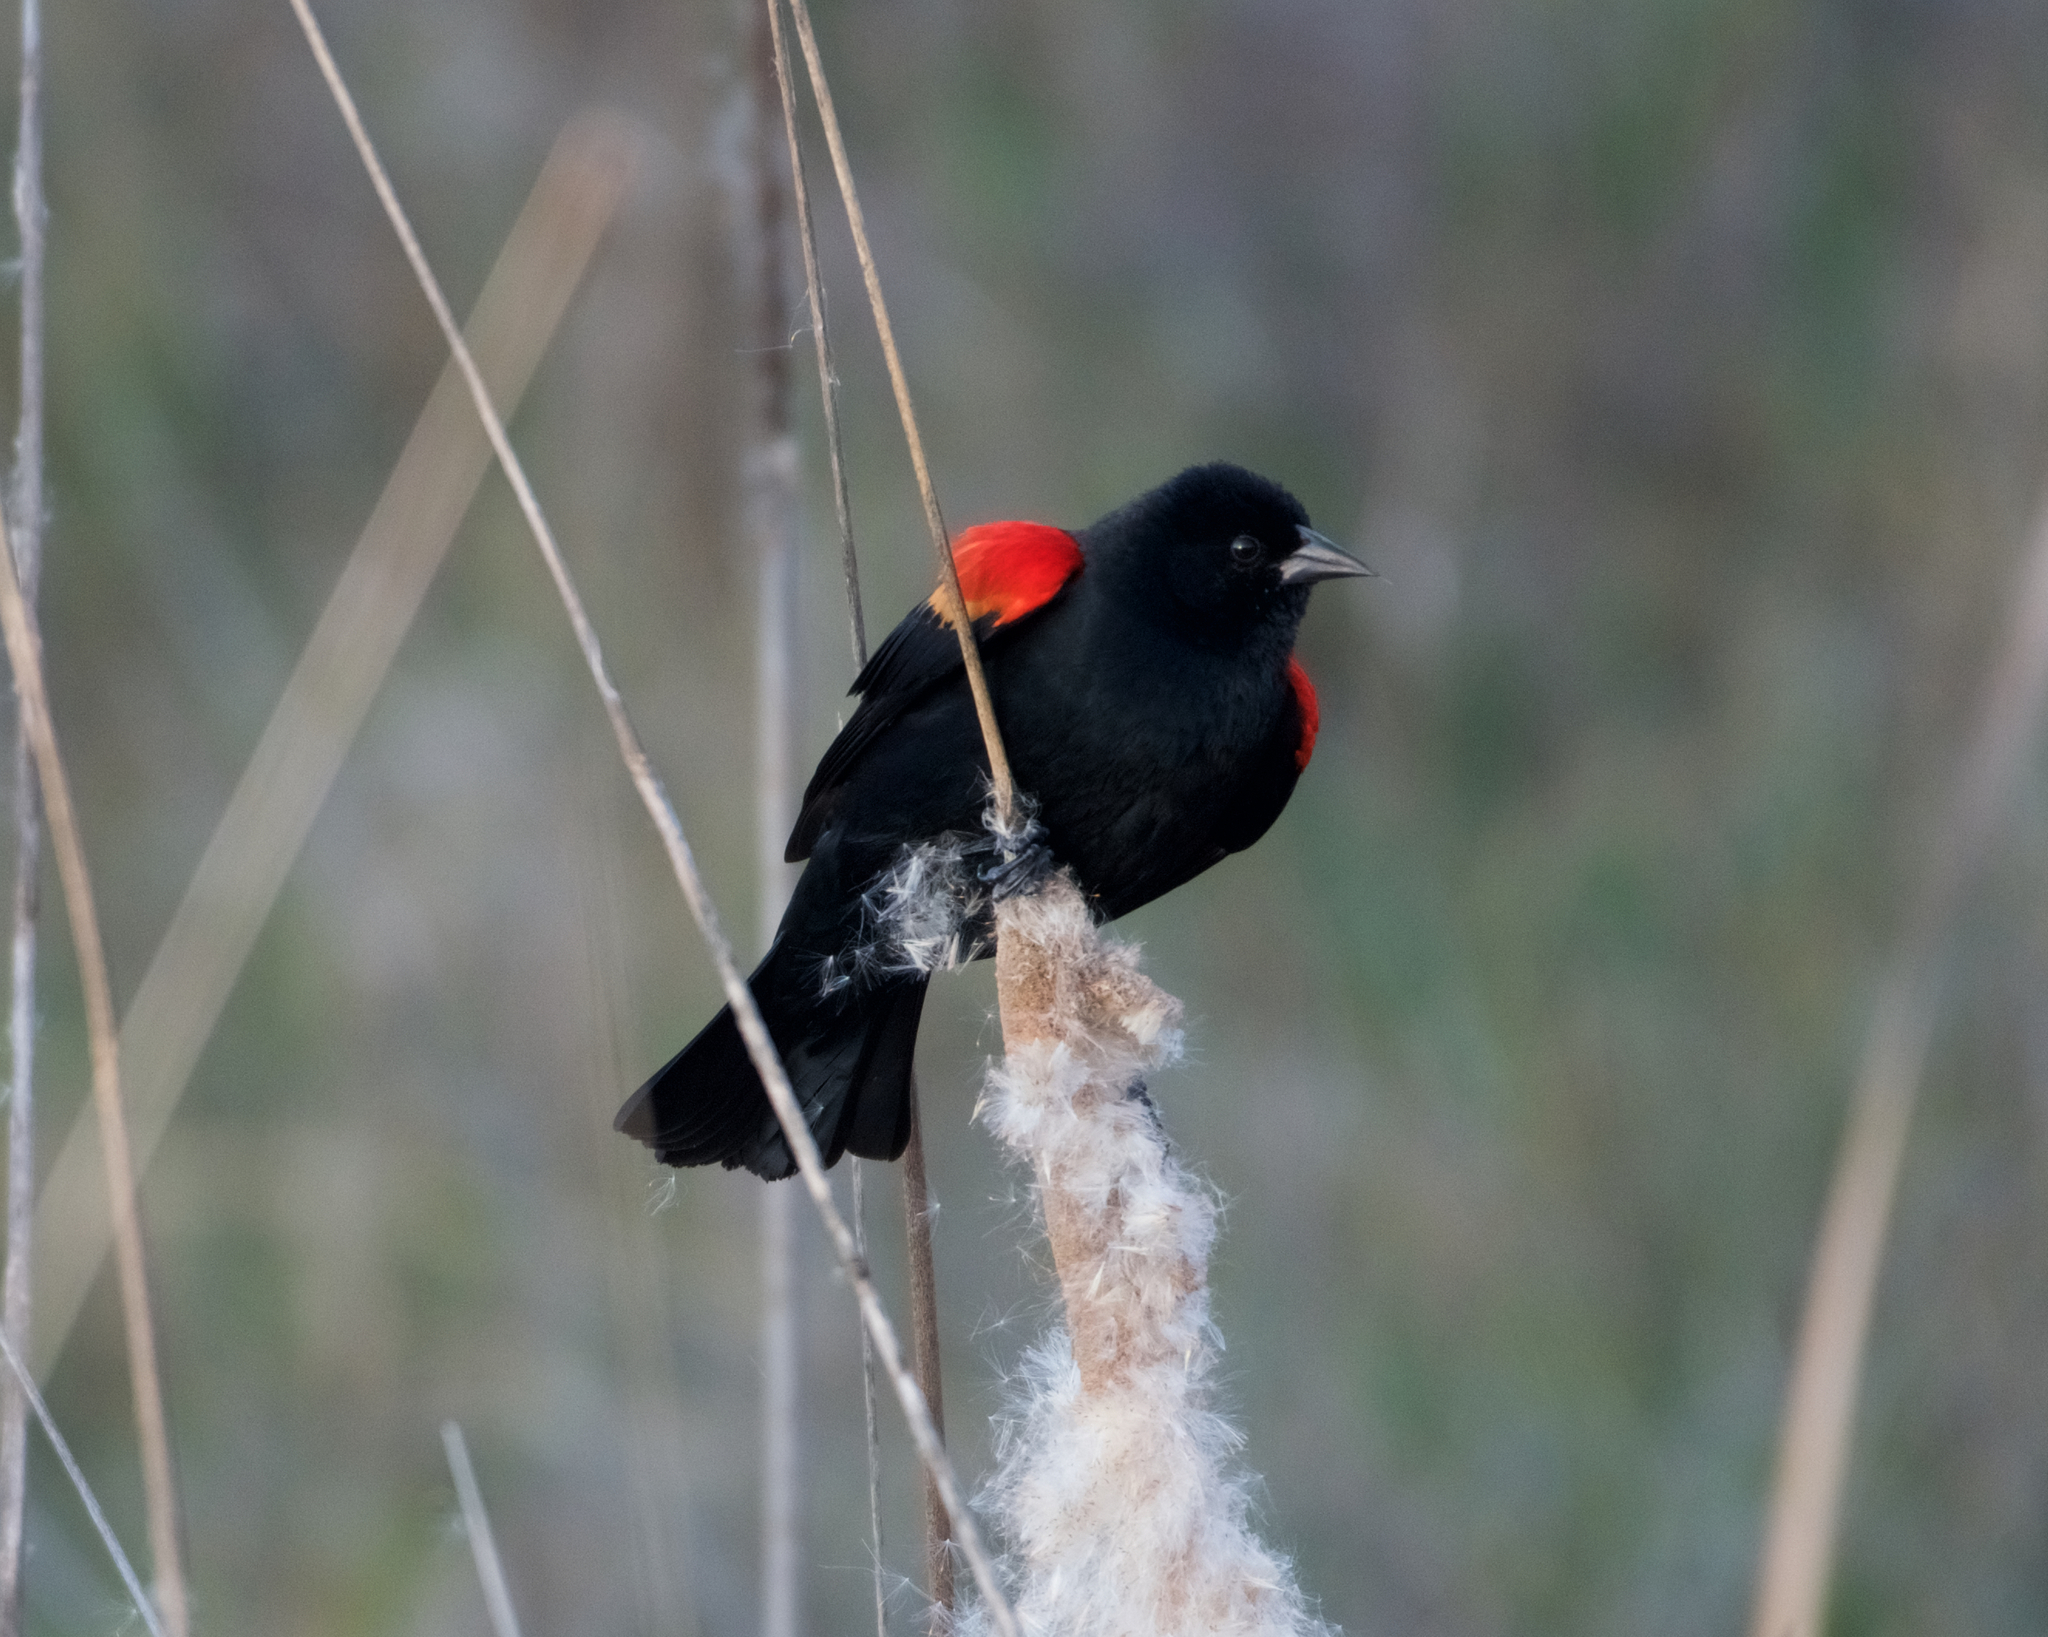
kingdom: Animalia
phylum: Chordata
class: Aves
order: Passeriformes
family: Icteridae
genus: Agelaius
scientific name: Agelaius phoeniceus
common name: Red-winged blackbird
